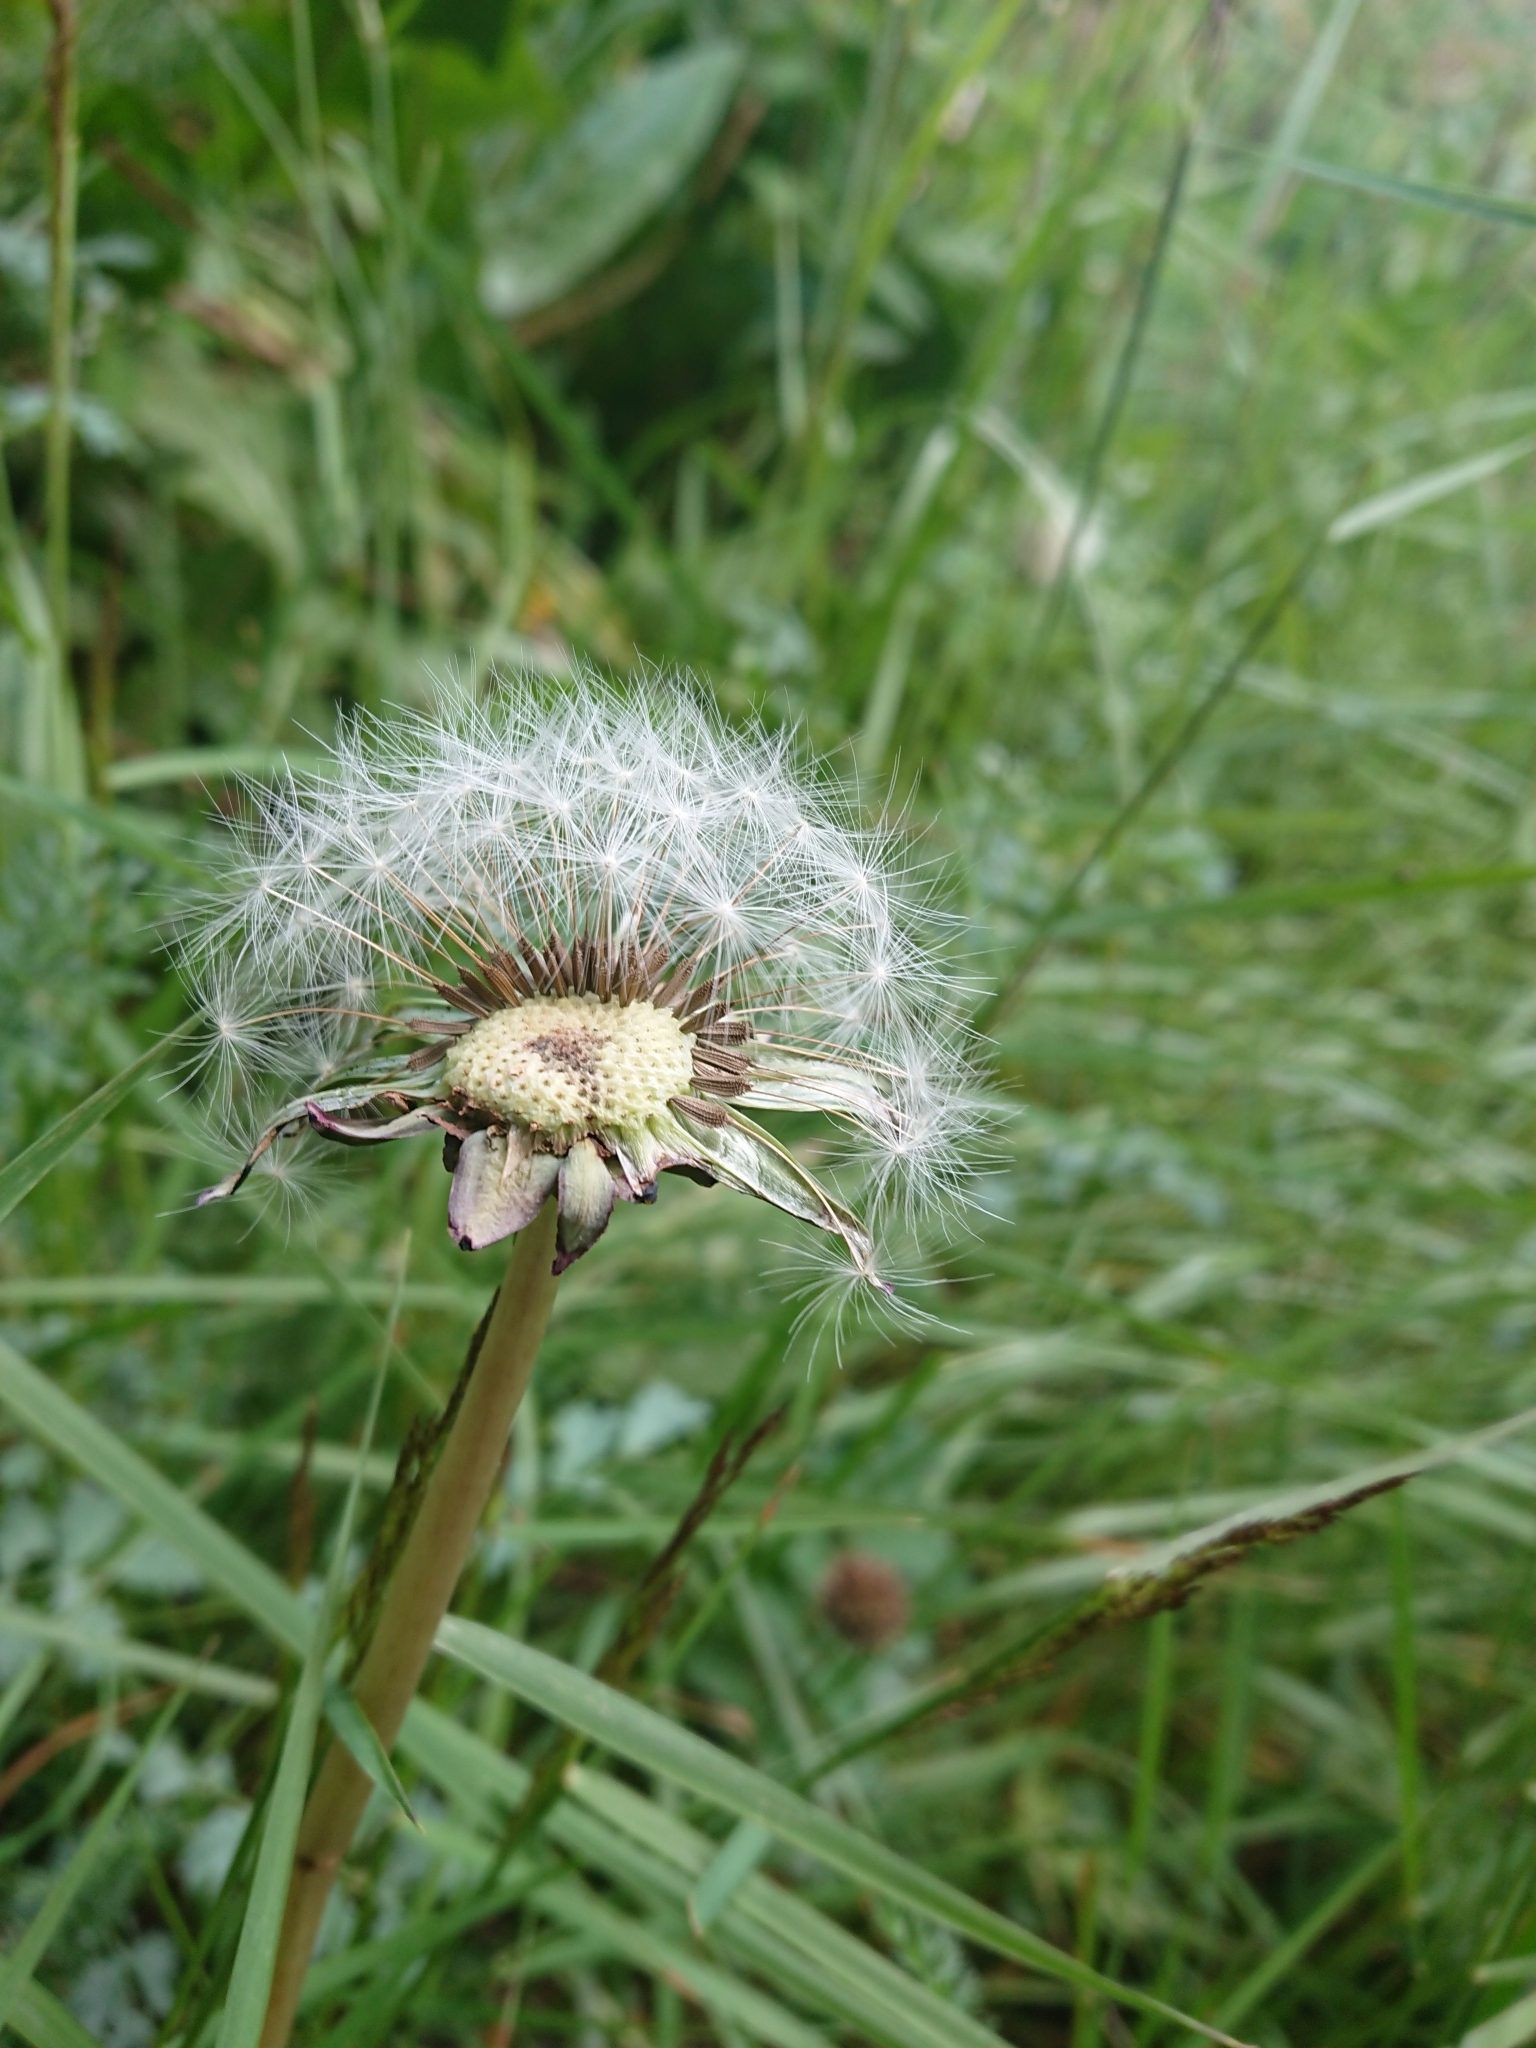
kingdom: Plantae
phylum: Tracheophyta
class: Magnoliopsida
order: Asterales
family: Asteraceae
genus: Taraxacum
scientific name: Taraxacum officinale
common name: Common dandelion
